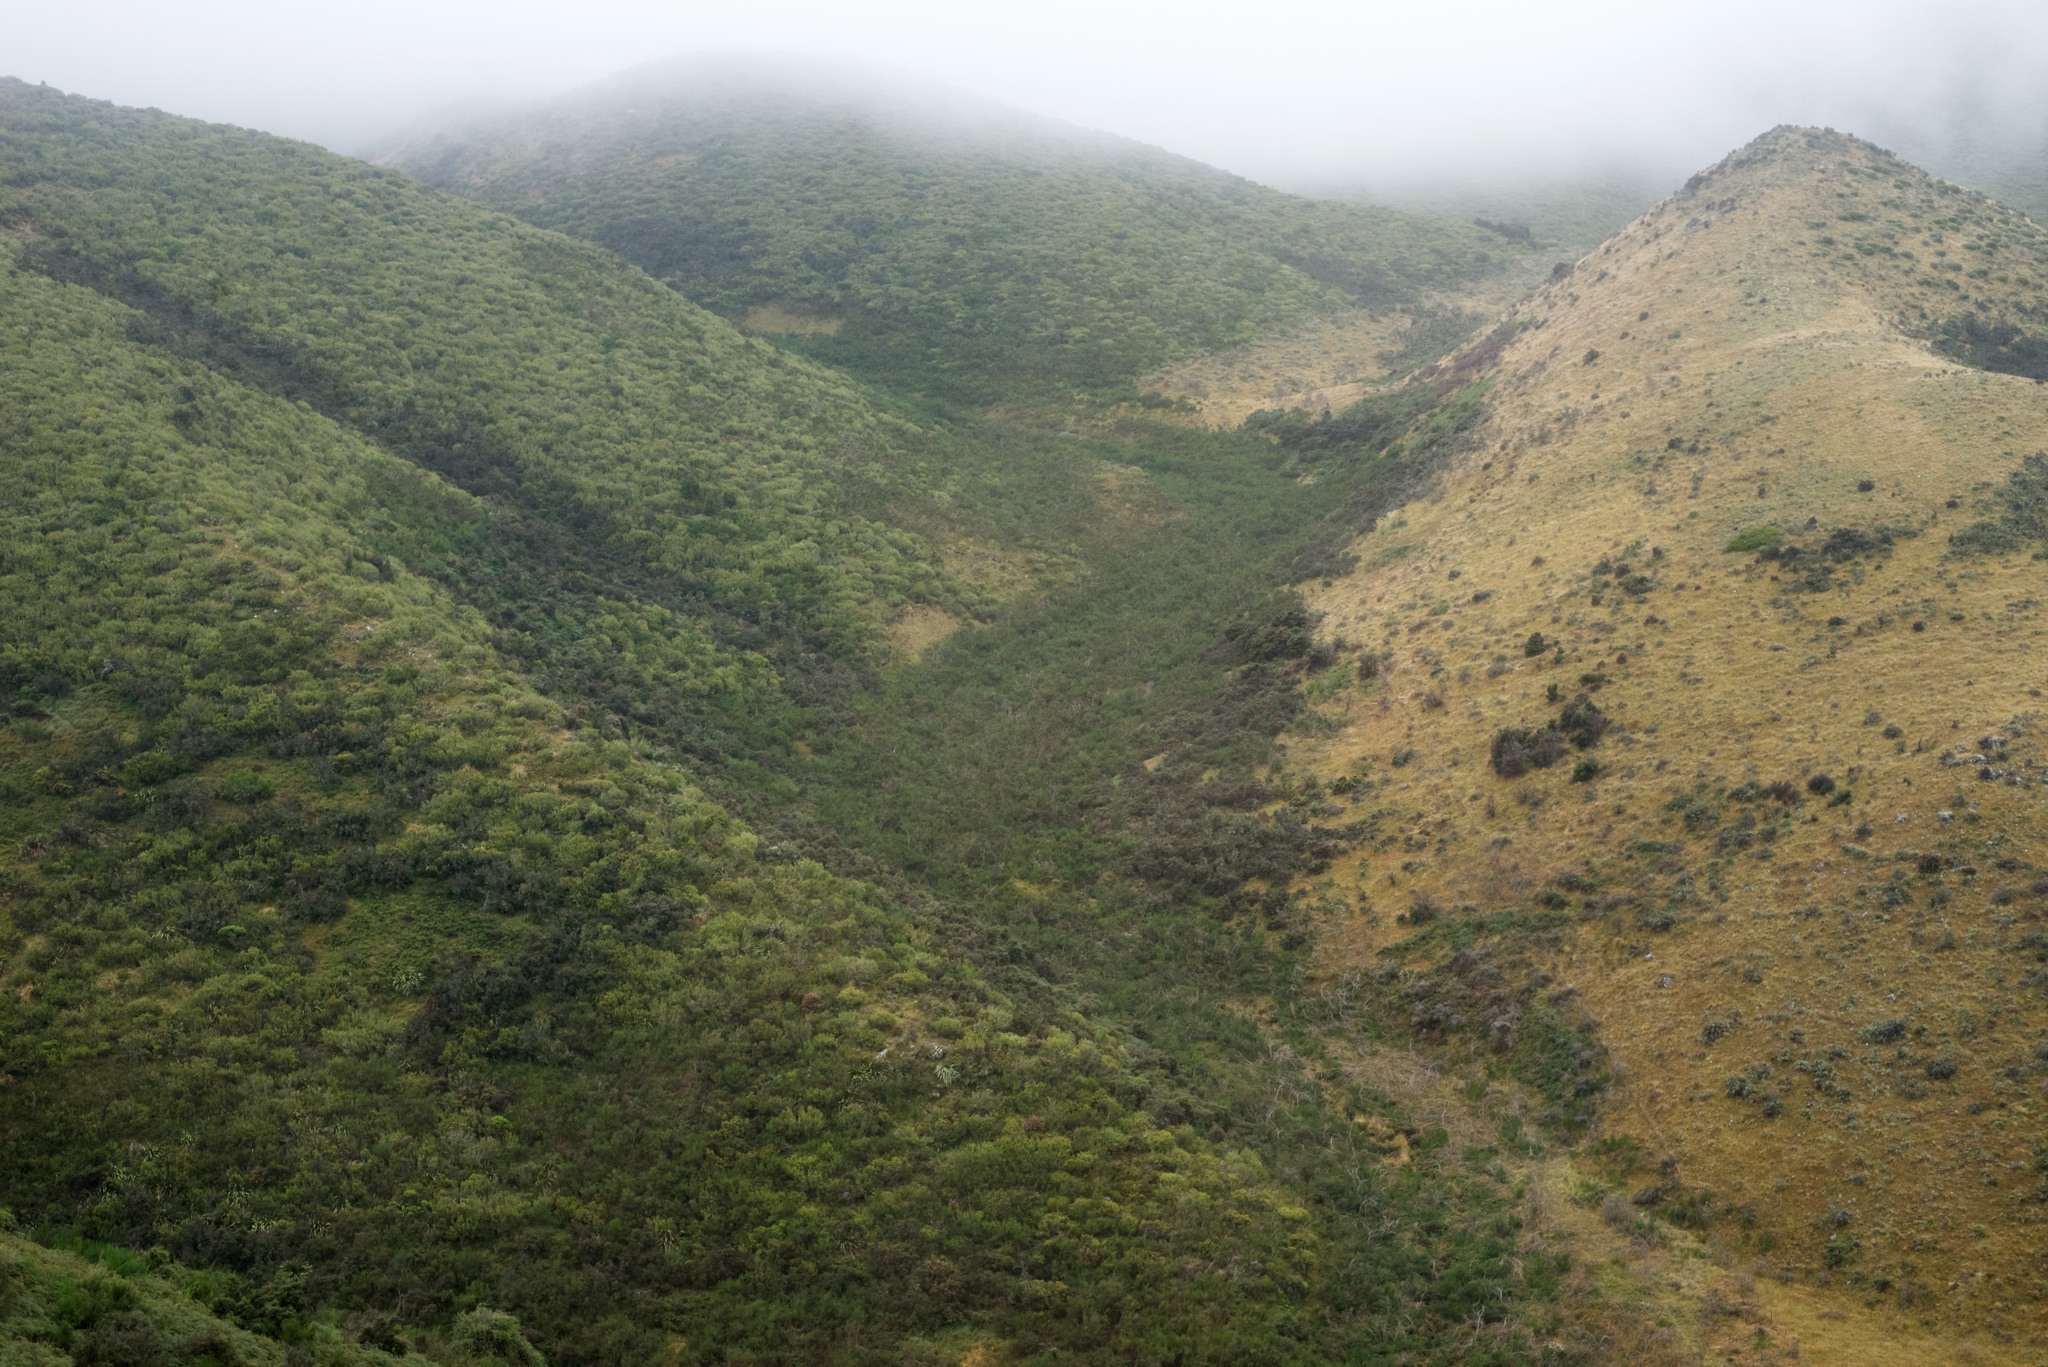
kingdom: Plantae
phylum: Tracheophyta
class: Magnoliopsida
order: Fabales
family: Fabaceae
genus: Cytisus
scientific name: Cytisus scoparius
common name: Scotch broom
